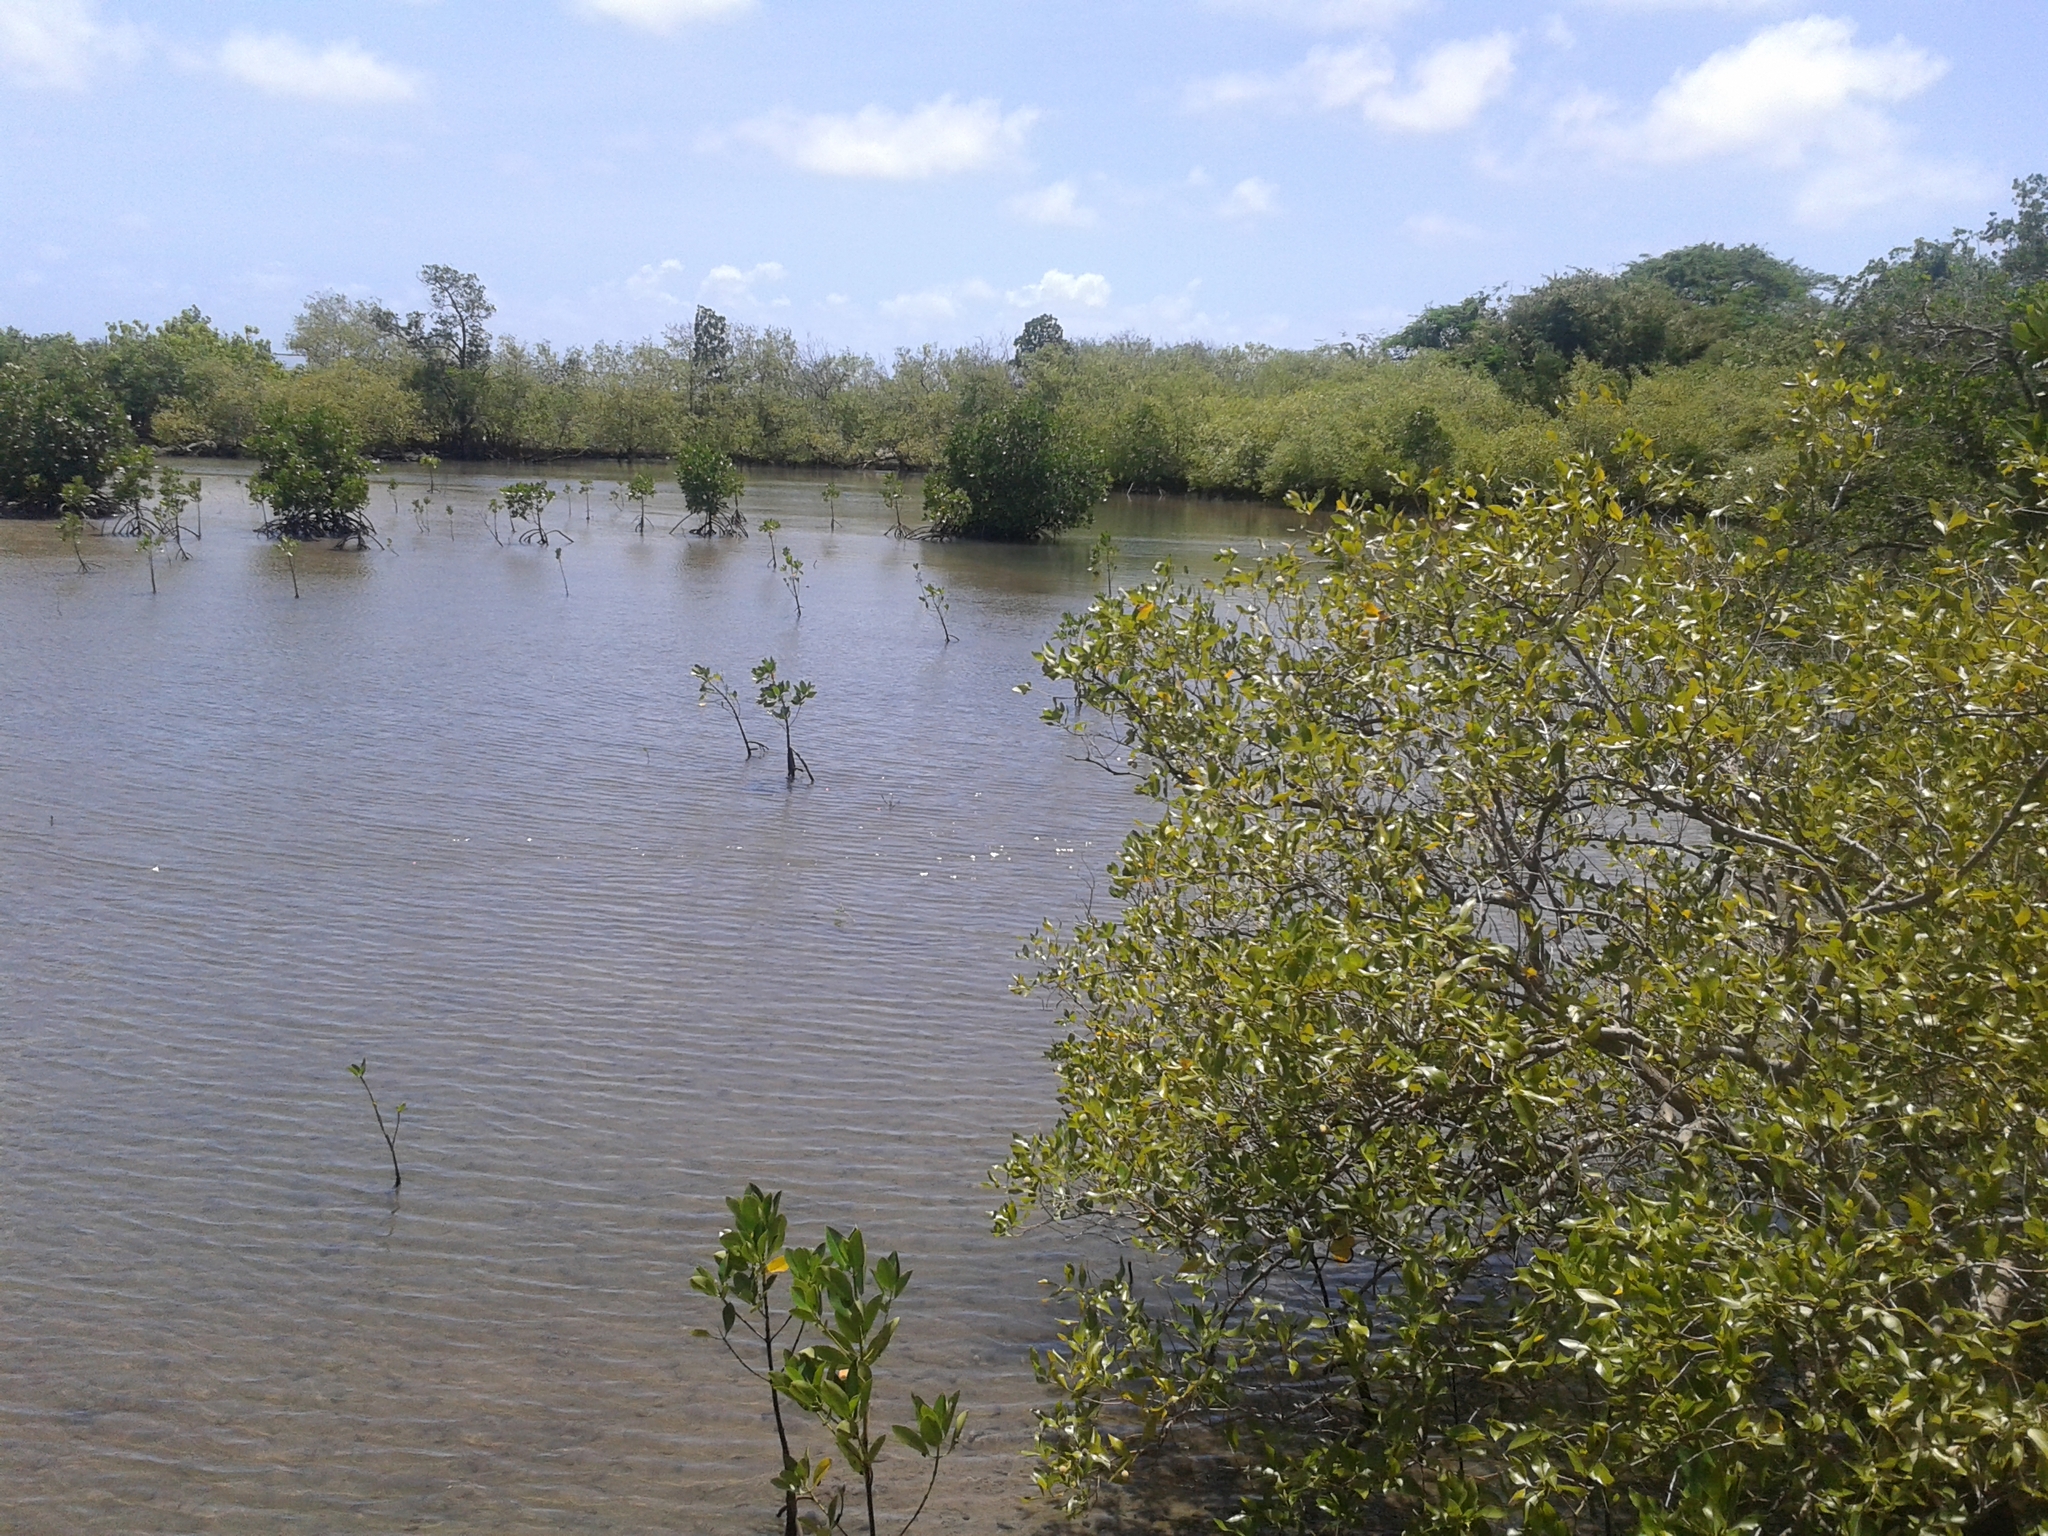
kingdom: Plantae
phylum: Tracheophyta
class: Magnoliopsida
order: Malpighiales
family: Rhizophoraceae
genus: Rhizophora
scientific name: Rhizophora mucronata
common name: Loop-root mangrove
